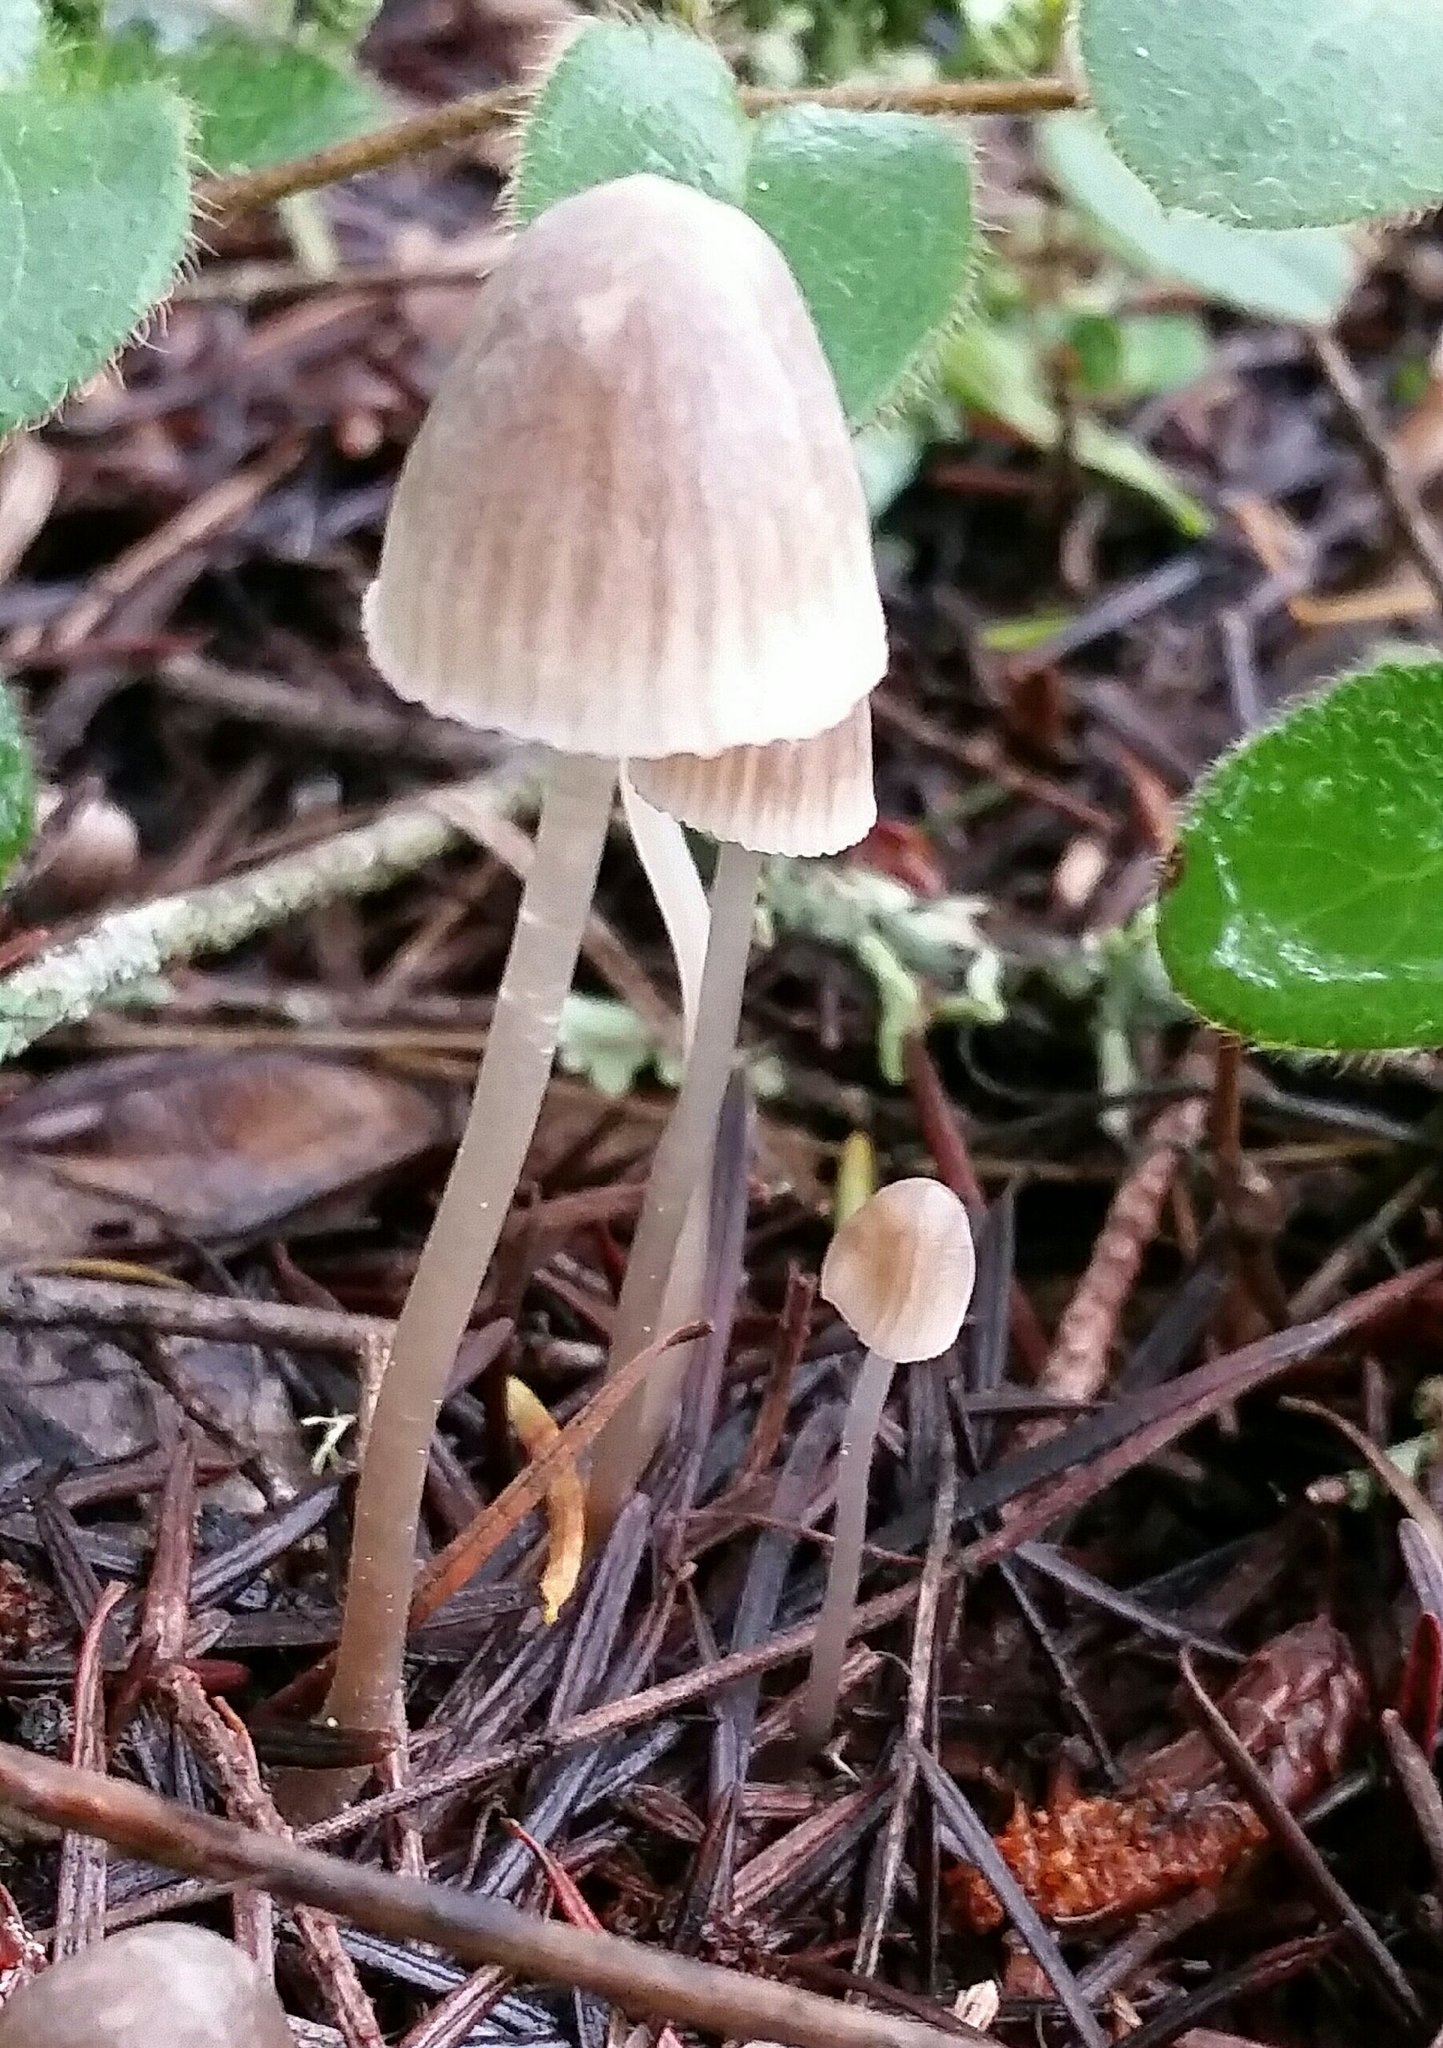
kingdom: Fungi
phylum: Basidiomycota
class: Agaricomycetes
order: Agaricales
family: Mycenaceae
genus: Mycena
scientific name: Mycena capillaripes
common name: Pinkedge bonnet
